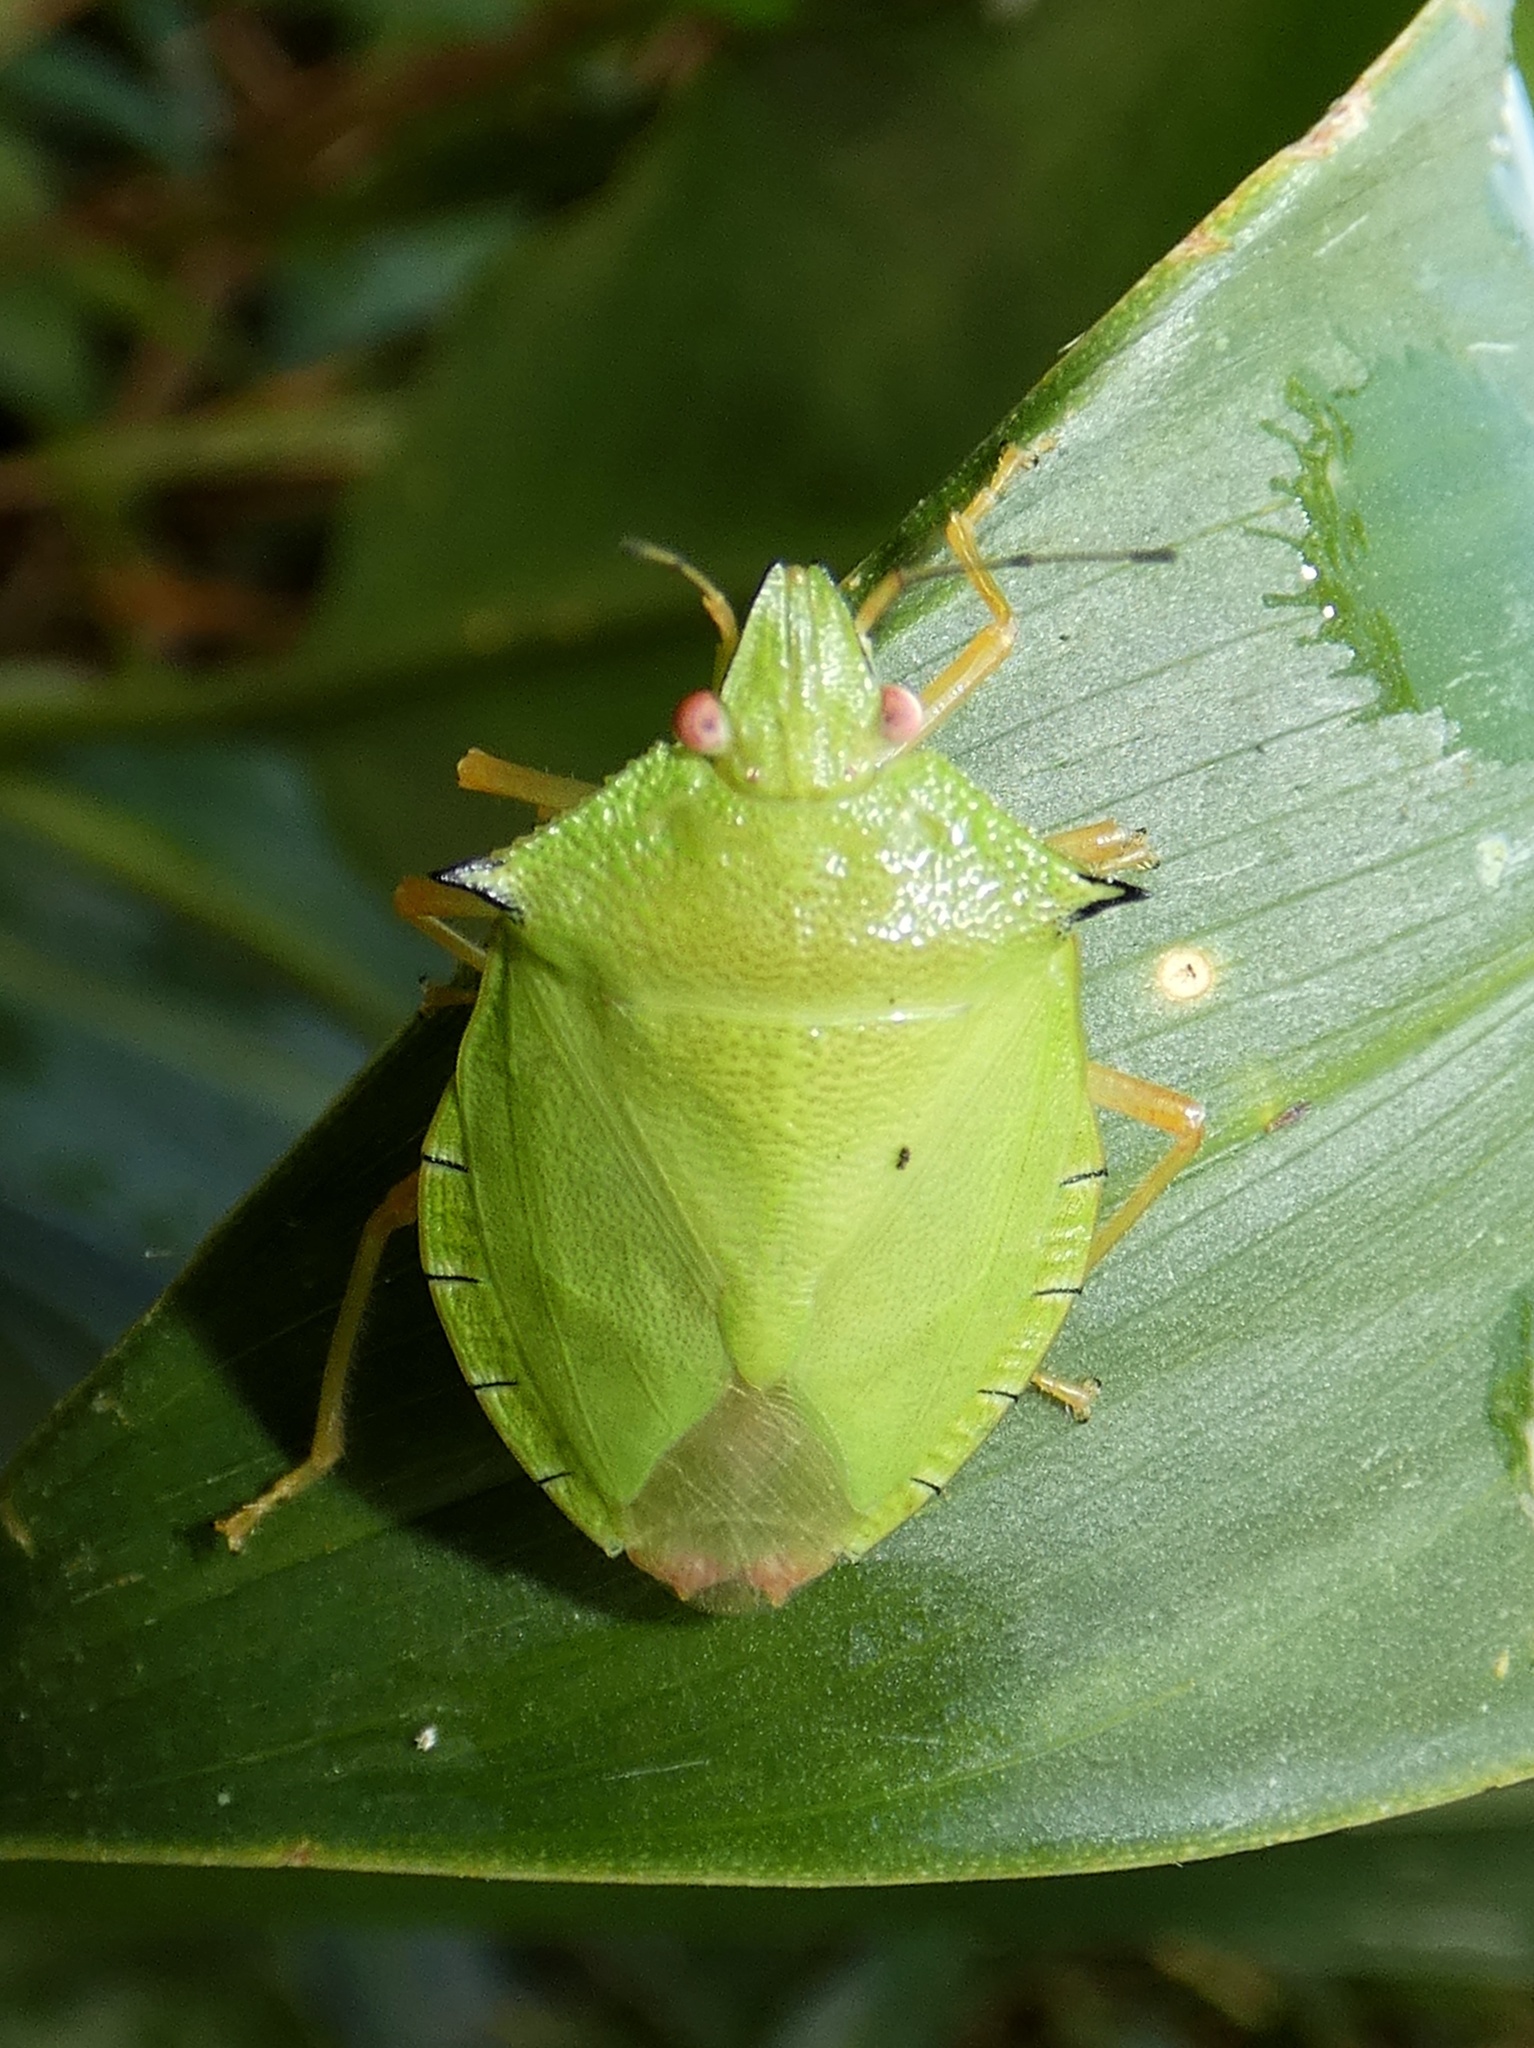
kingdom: Animalia
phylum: Arthropoda
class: Insecta
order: Hemiptera
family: Pentatomidae
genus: Chlorocoris
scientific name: Chlorocoris
